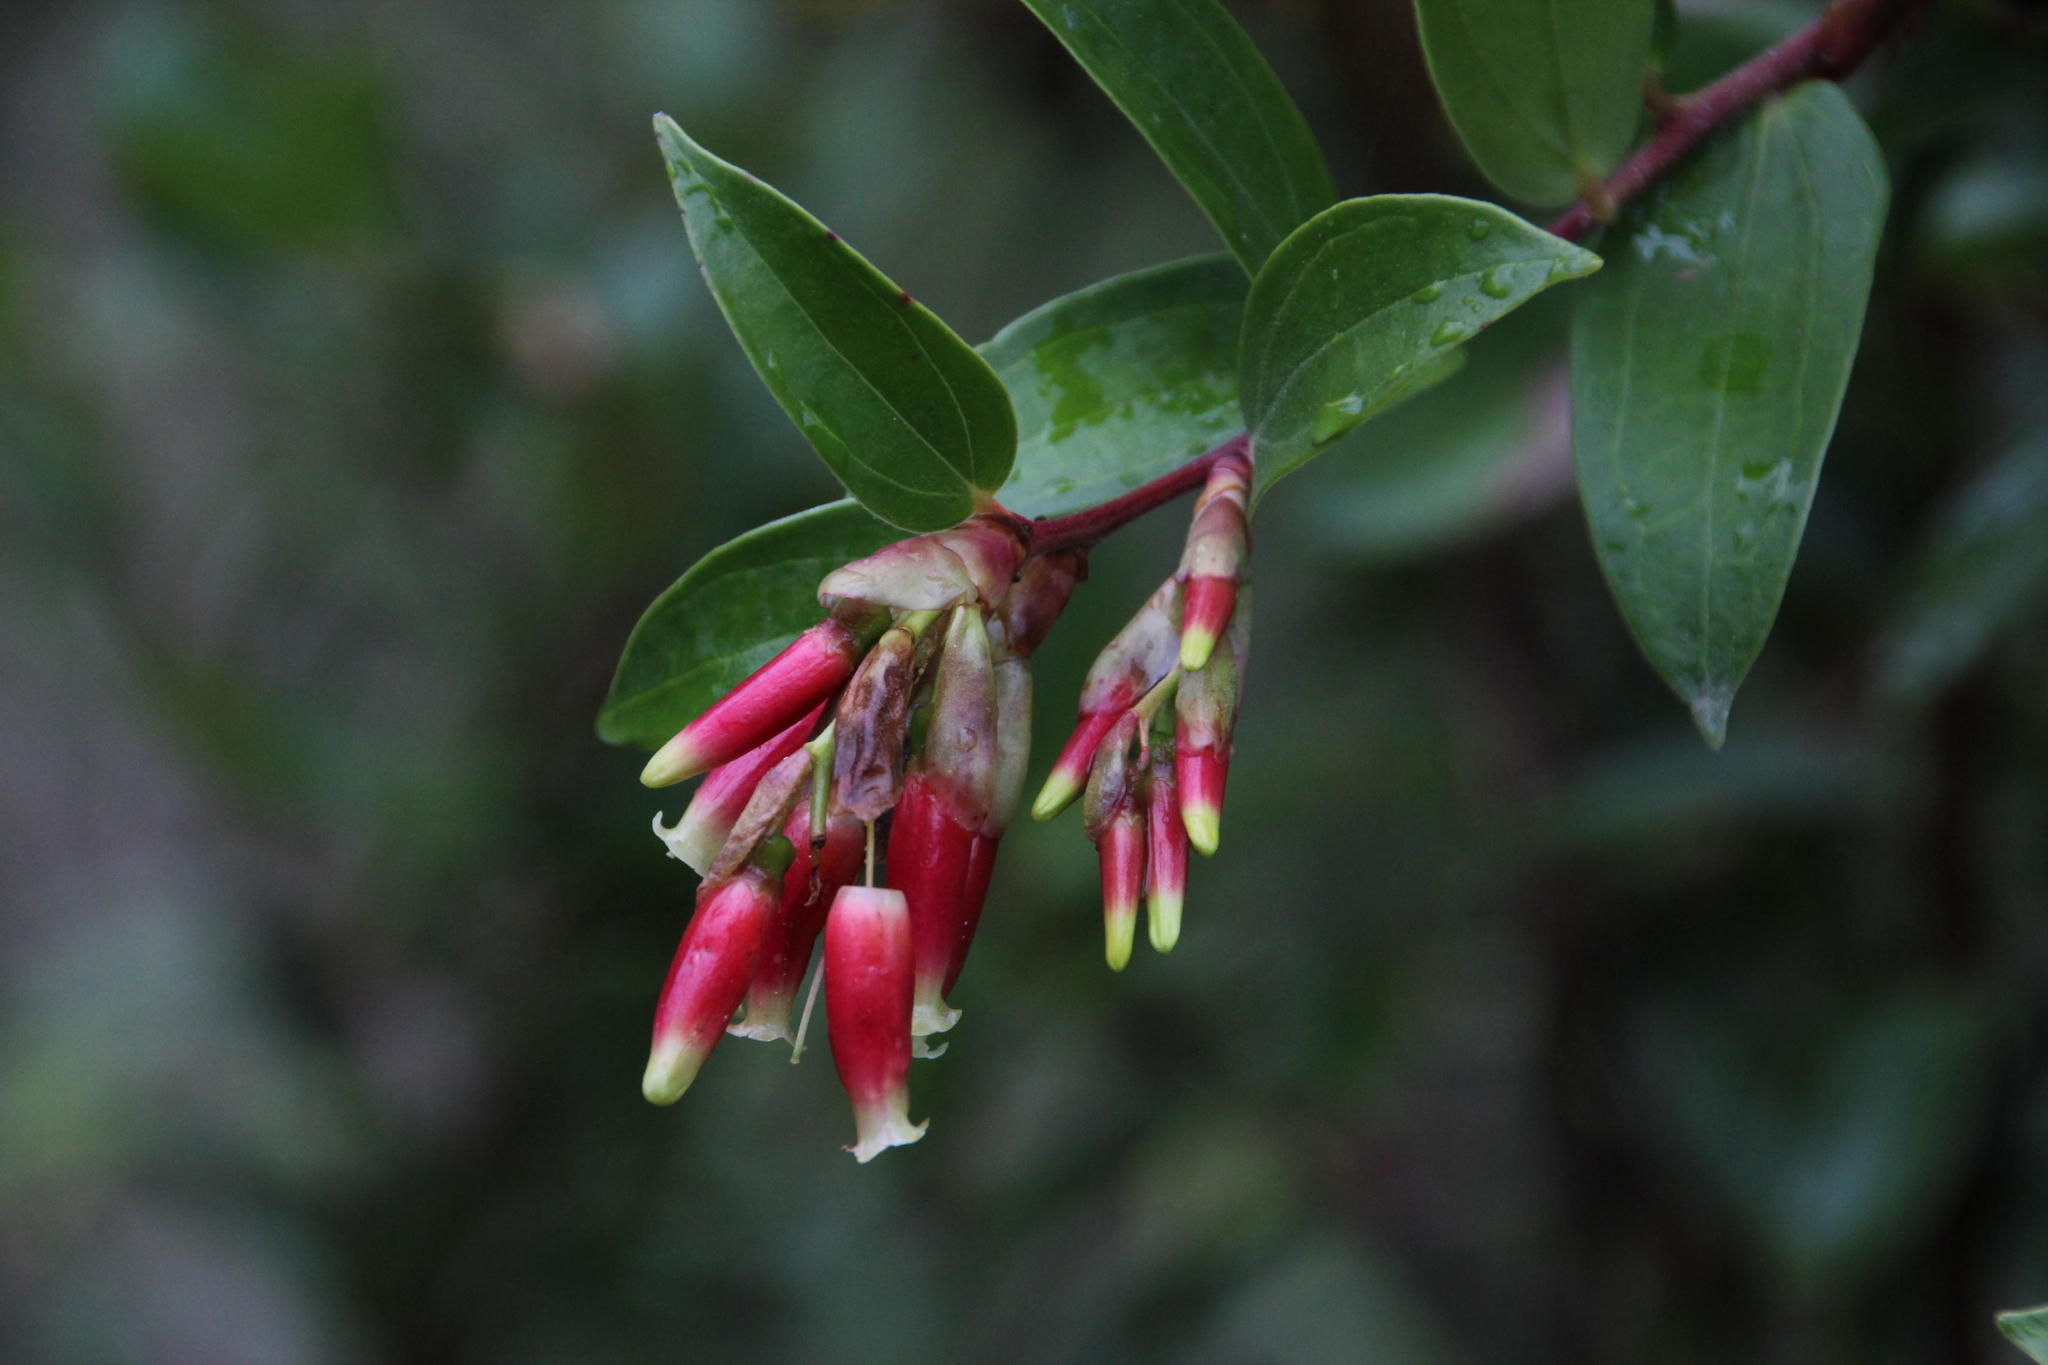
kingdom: Plantae
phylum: Tracheophyta
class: Magnoliopsida
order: Ericales
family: Ericaceae
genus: Cavendishia
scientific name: Cavendishia bracteata
